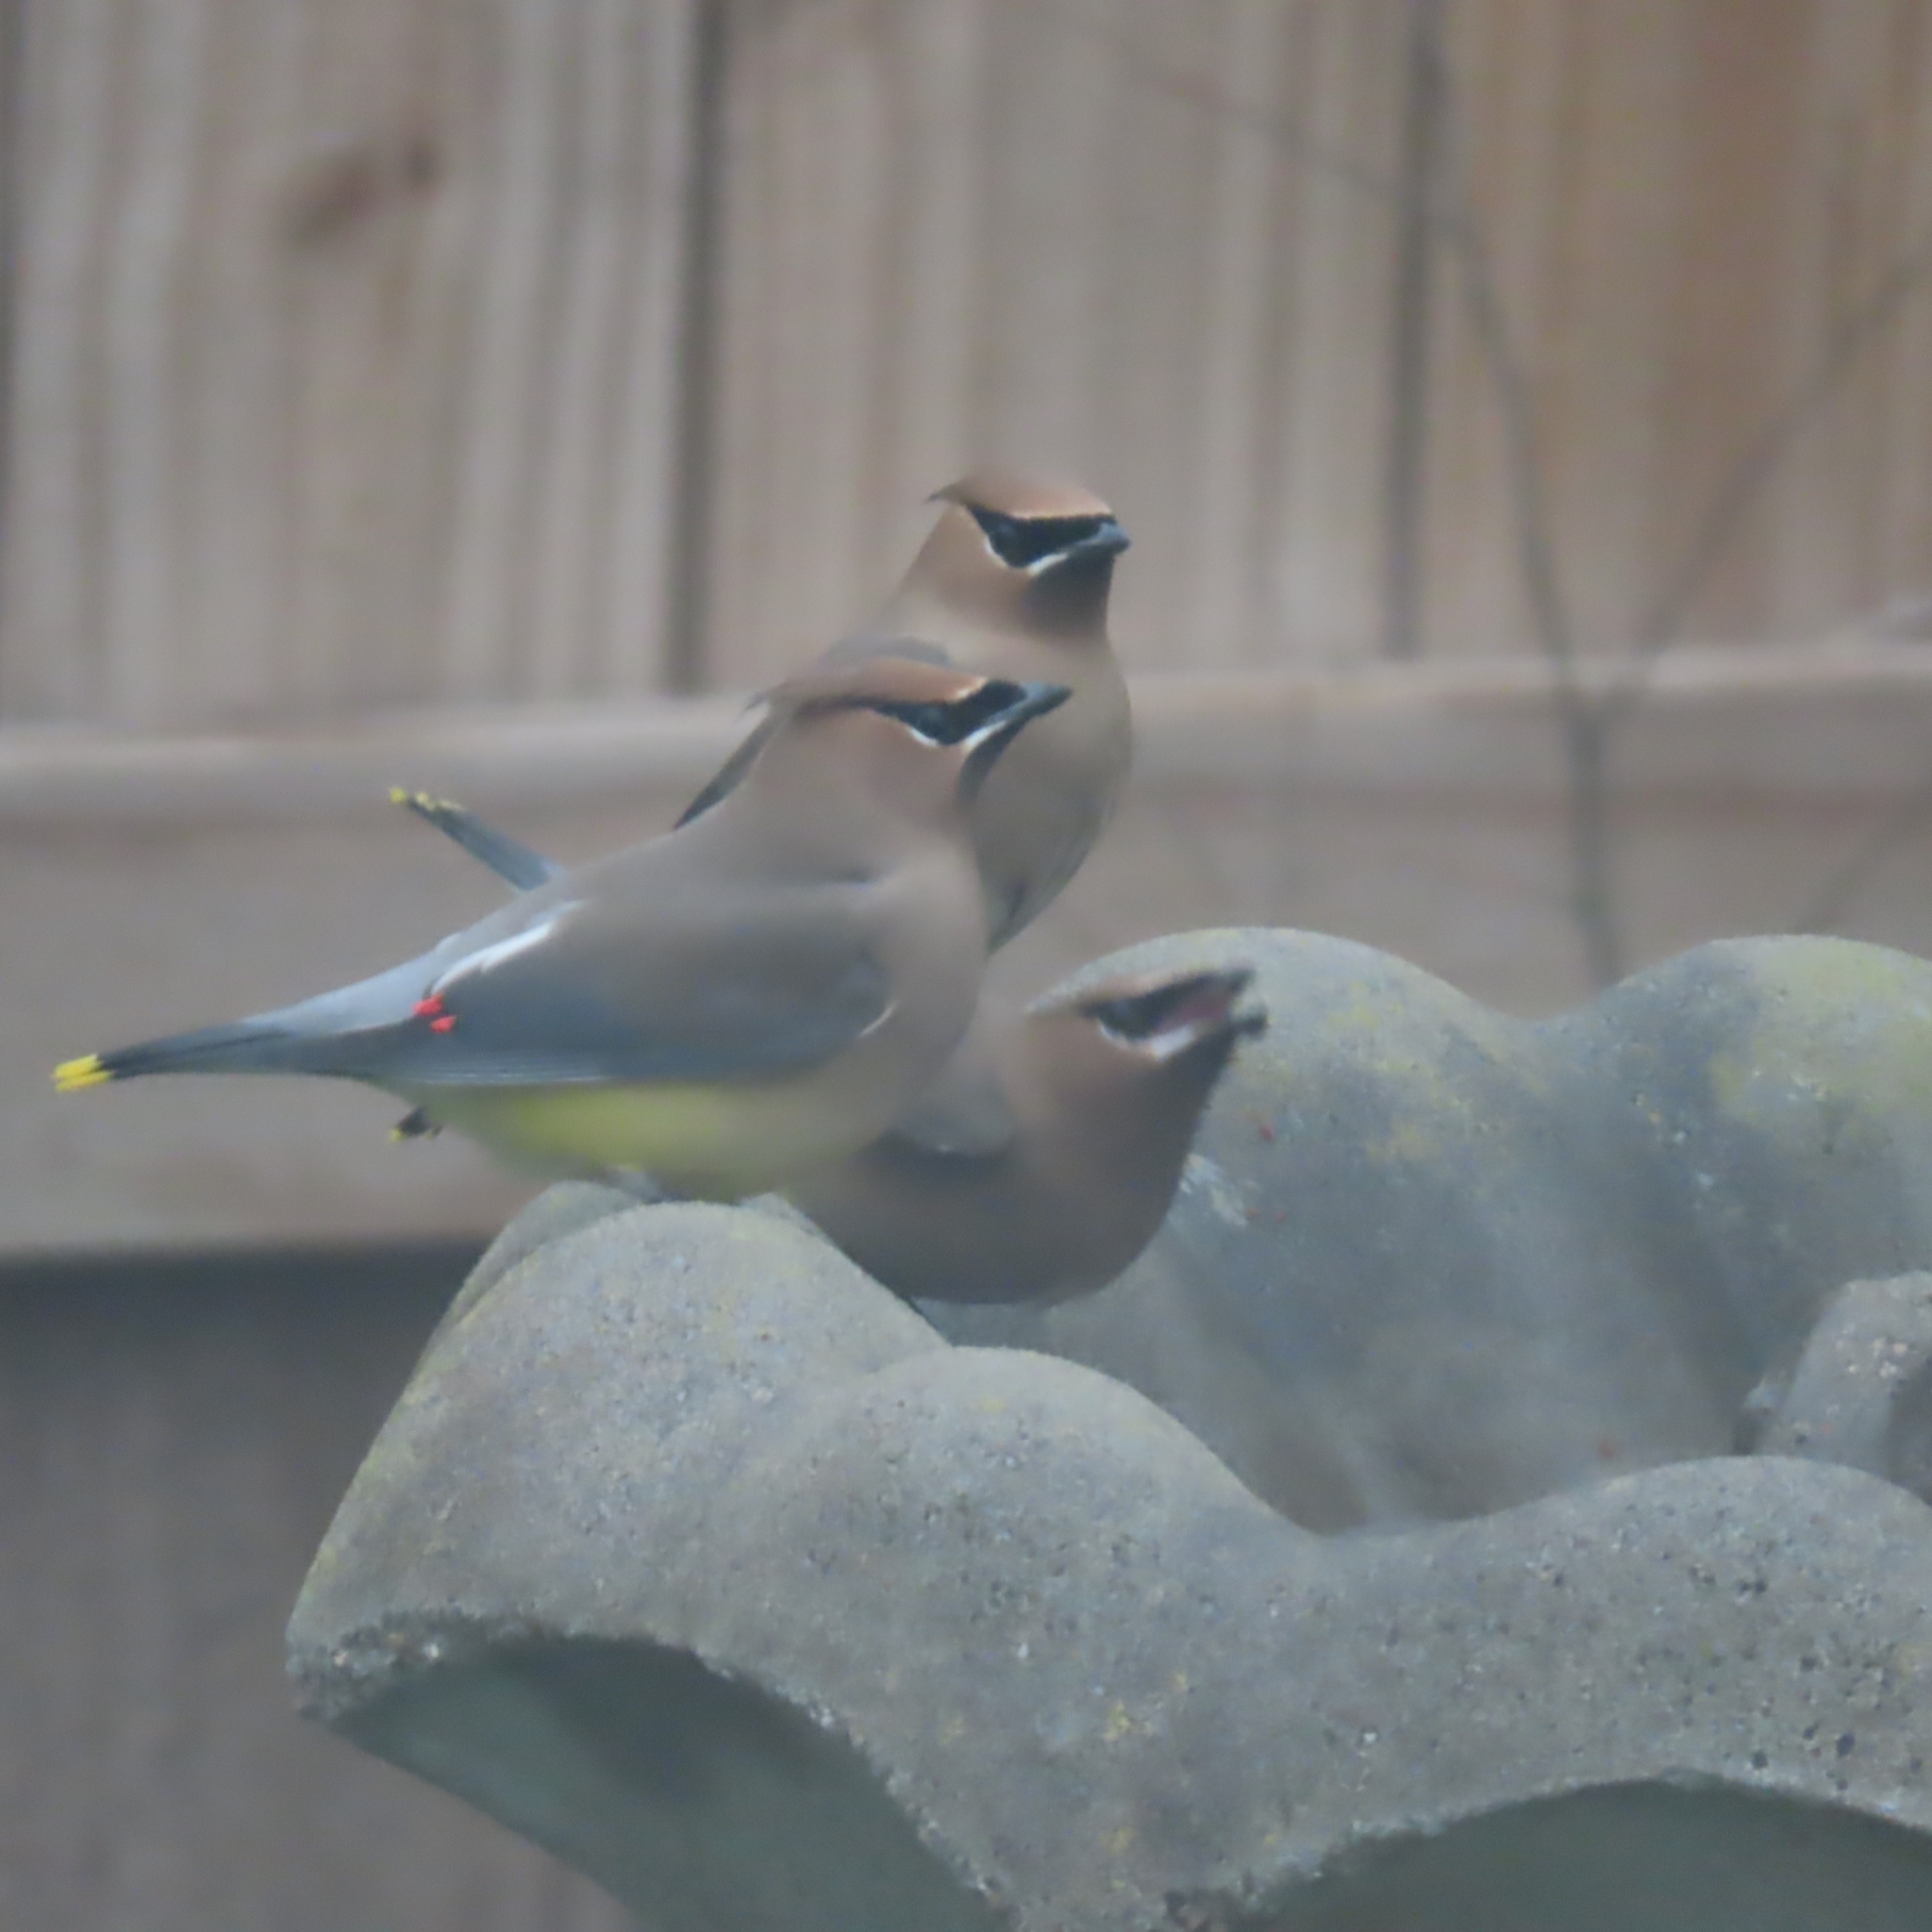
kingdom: Animalia
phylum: Chordata
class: Aves
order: Passeriformes
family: Bombycillidae
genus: Bombycilla
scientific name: Bombycilla cedrorum
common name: Cedar waxwing
